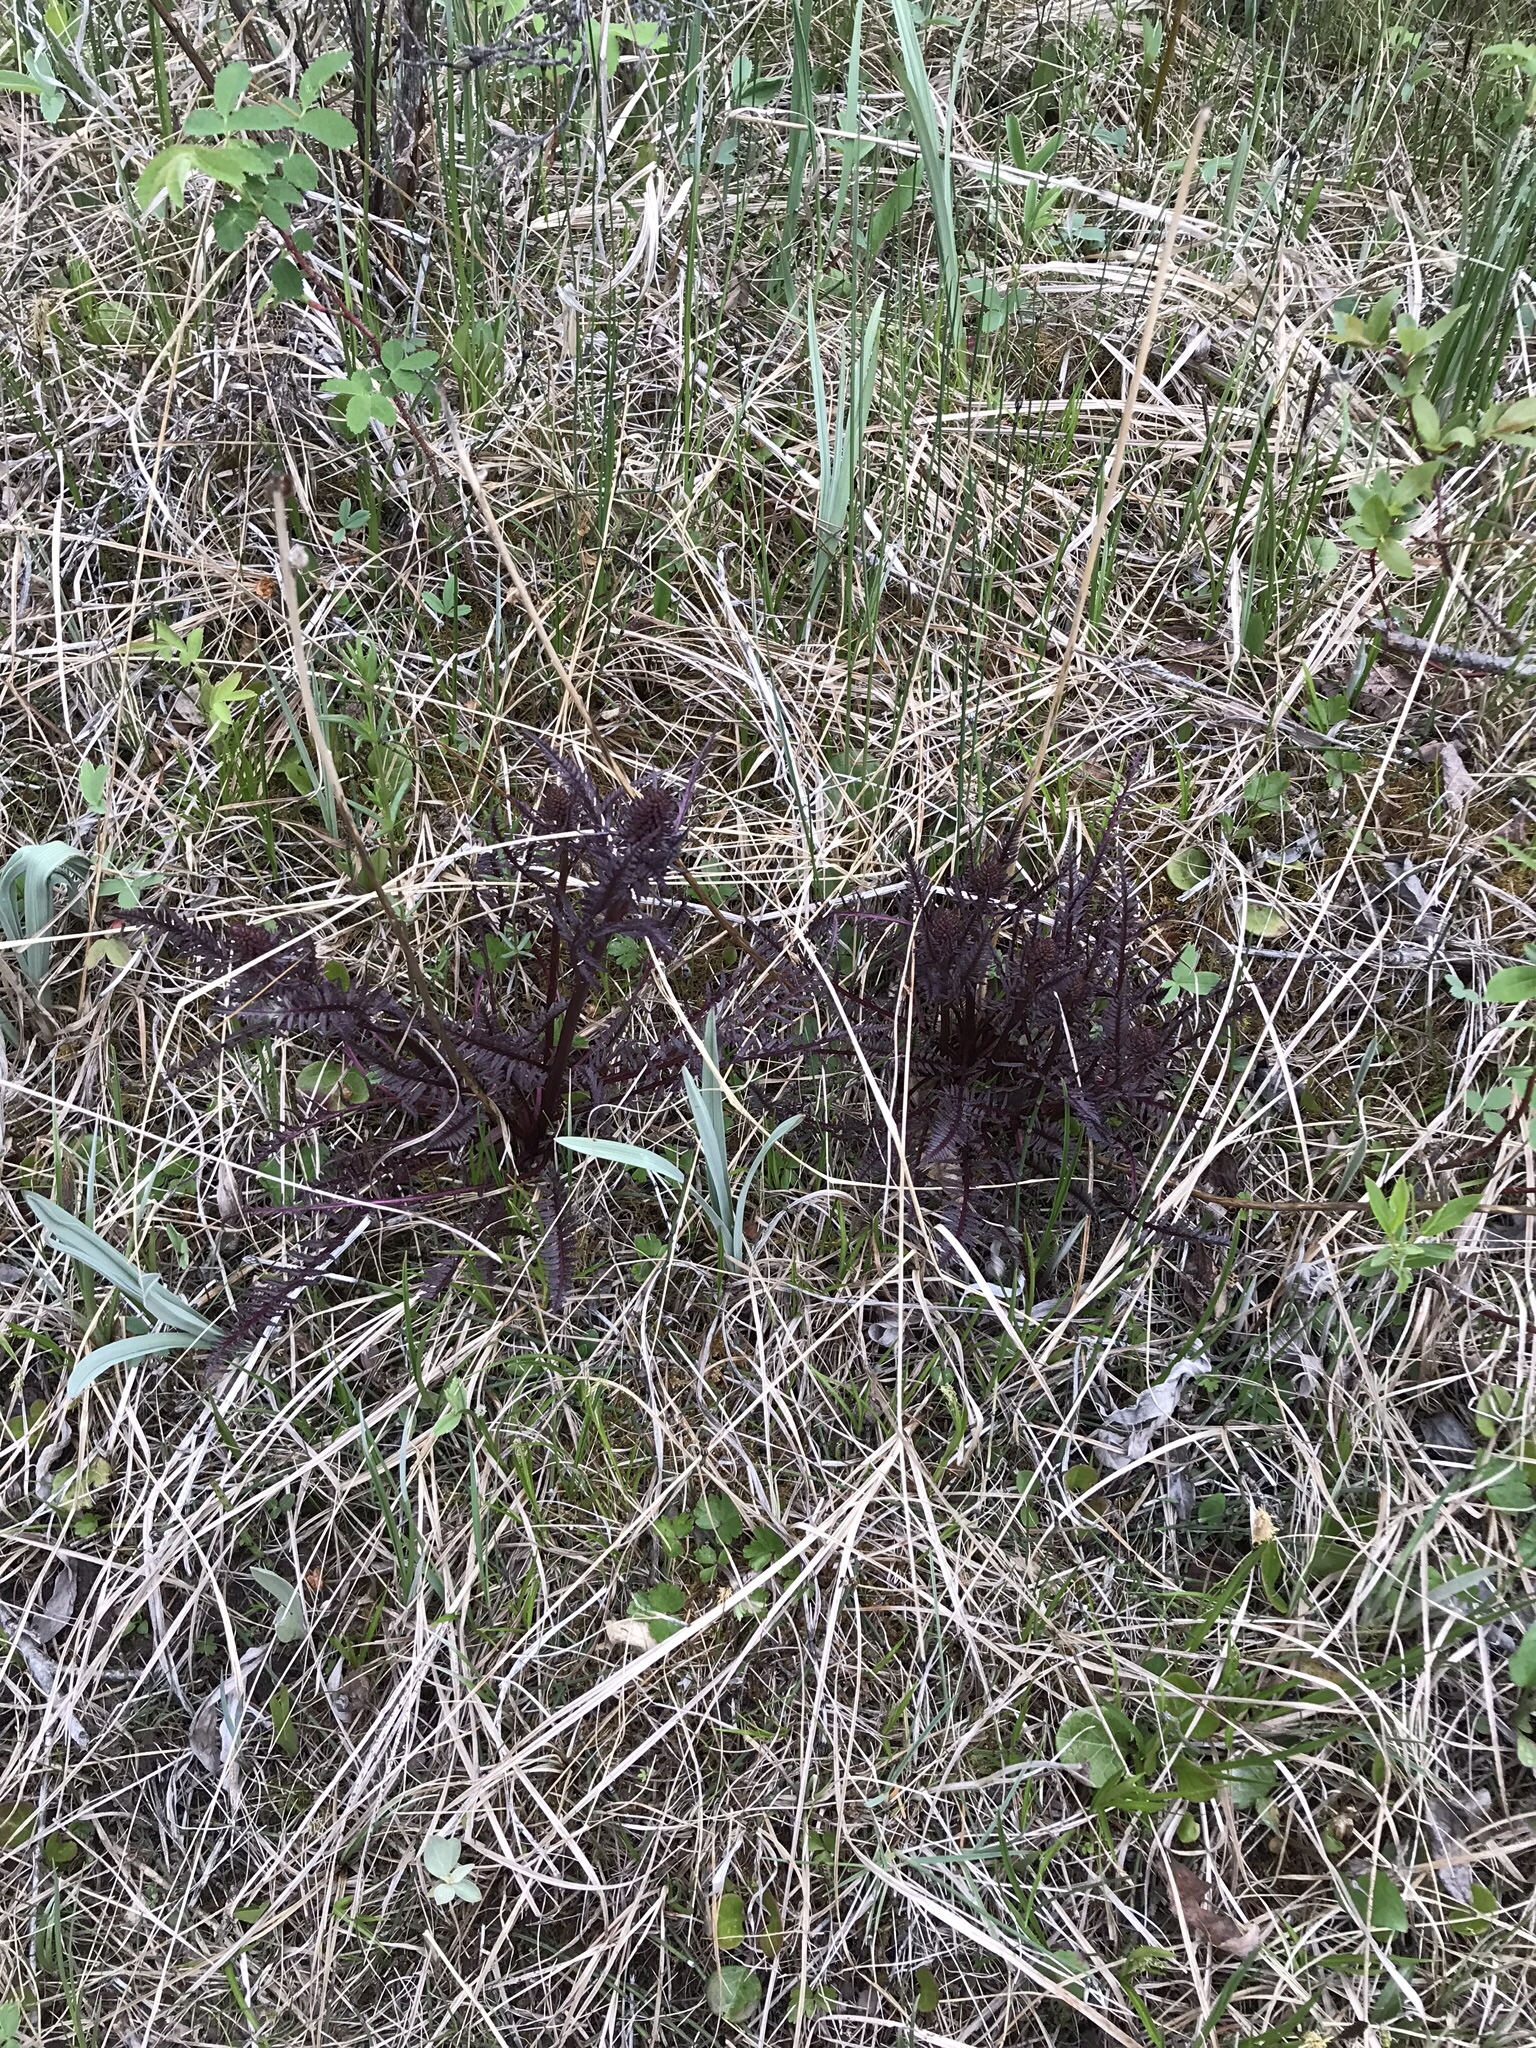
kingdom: Plantae
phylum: Tracheophyta
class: Magnoliopsida
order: Lamiales
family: Orobanchaceae
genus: Pedicularis
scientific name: Pedicularis groenlandica
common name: Elephant's-head
